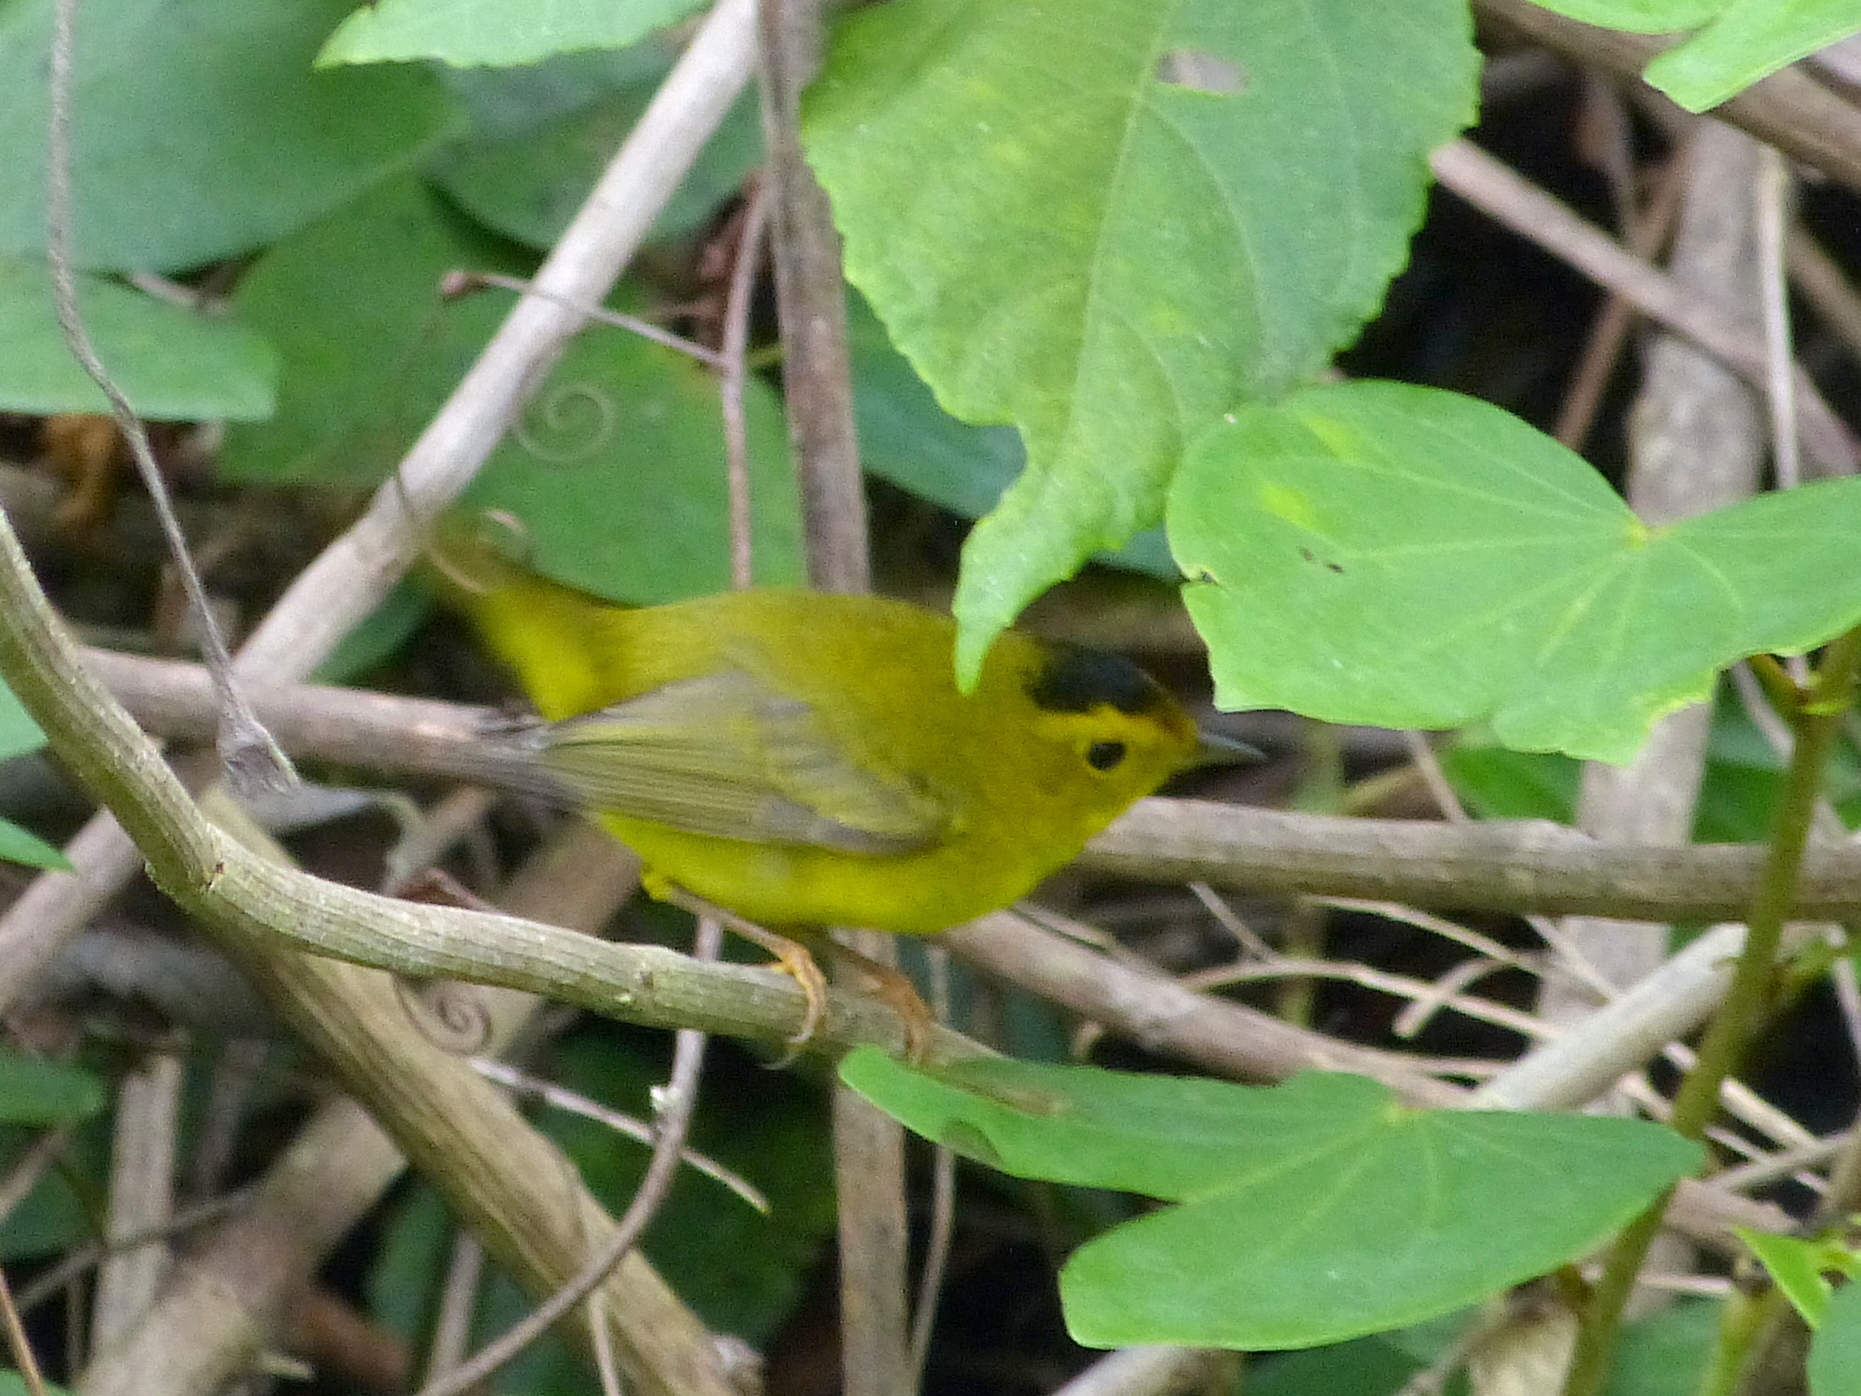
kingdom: Animalia
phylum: Chordata
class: Aves
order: Passeriformes
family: Parulidae
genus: Cardellina
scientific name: Cardellina pusilla
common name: Wilson's warbler
